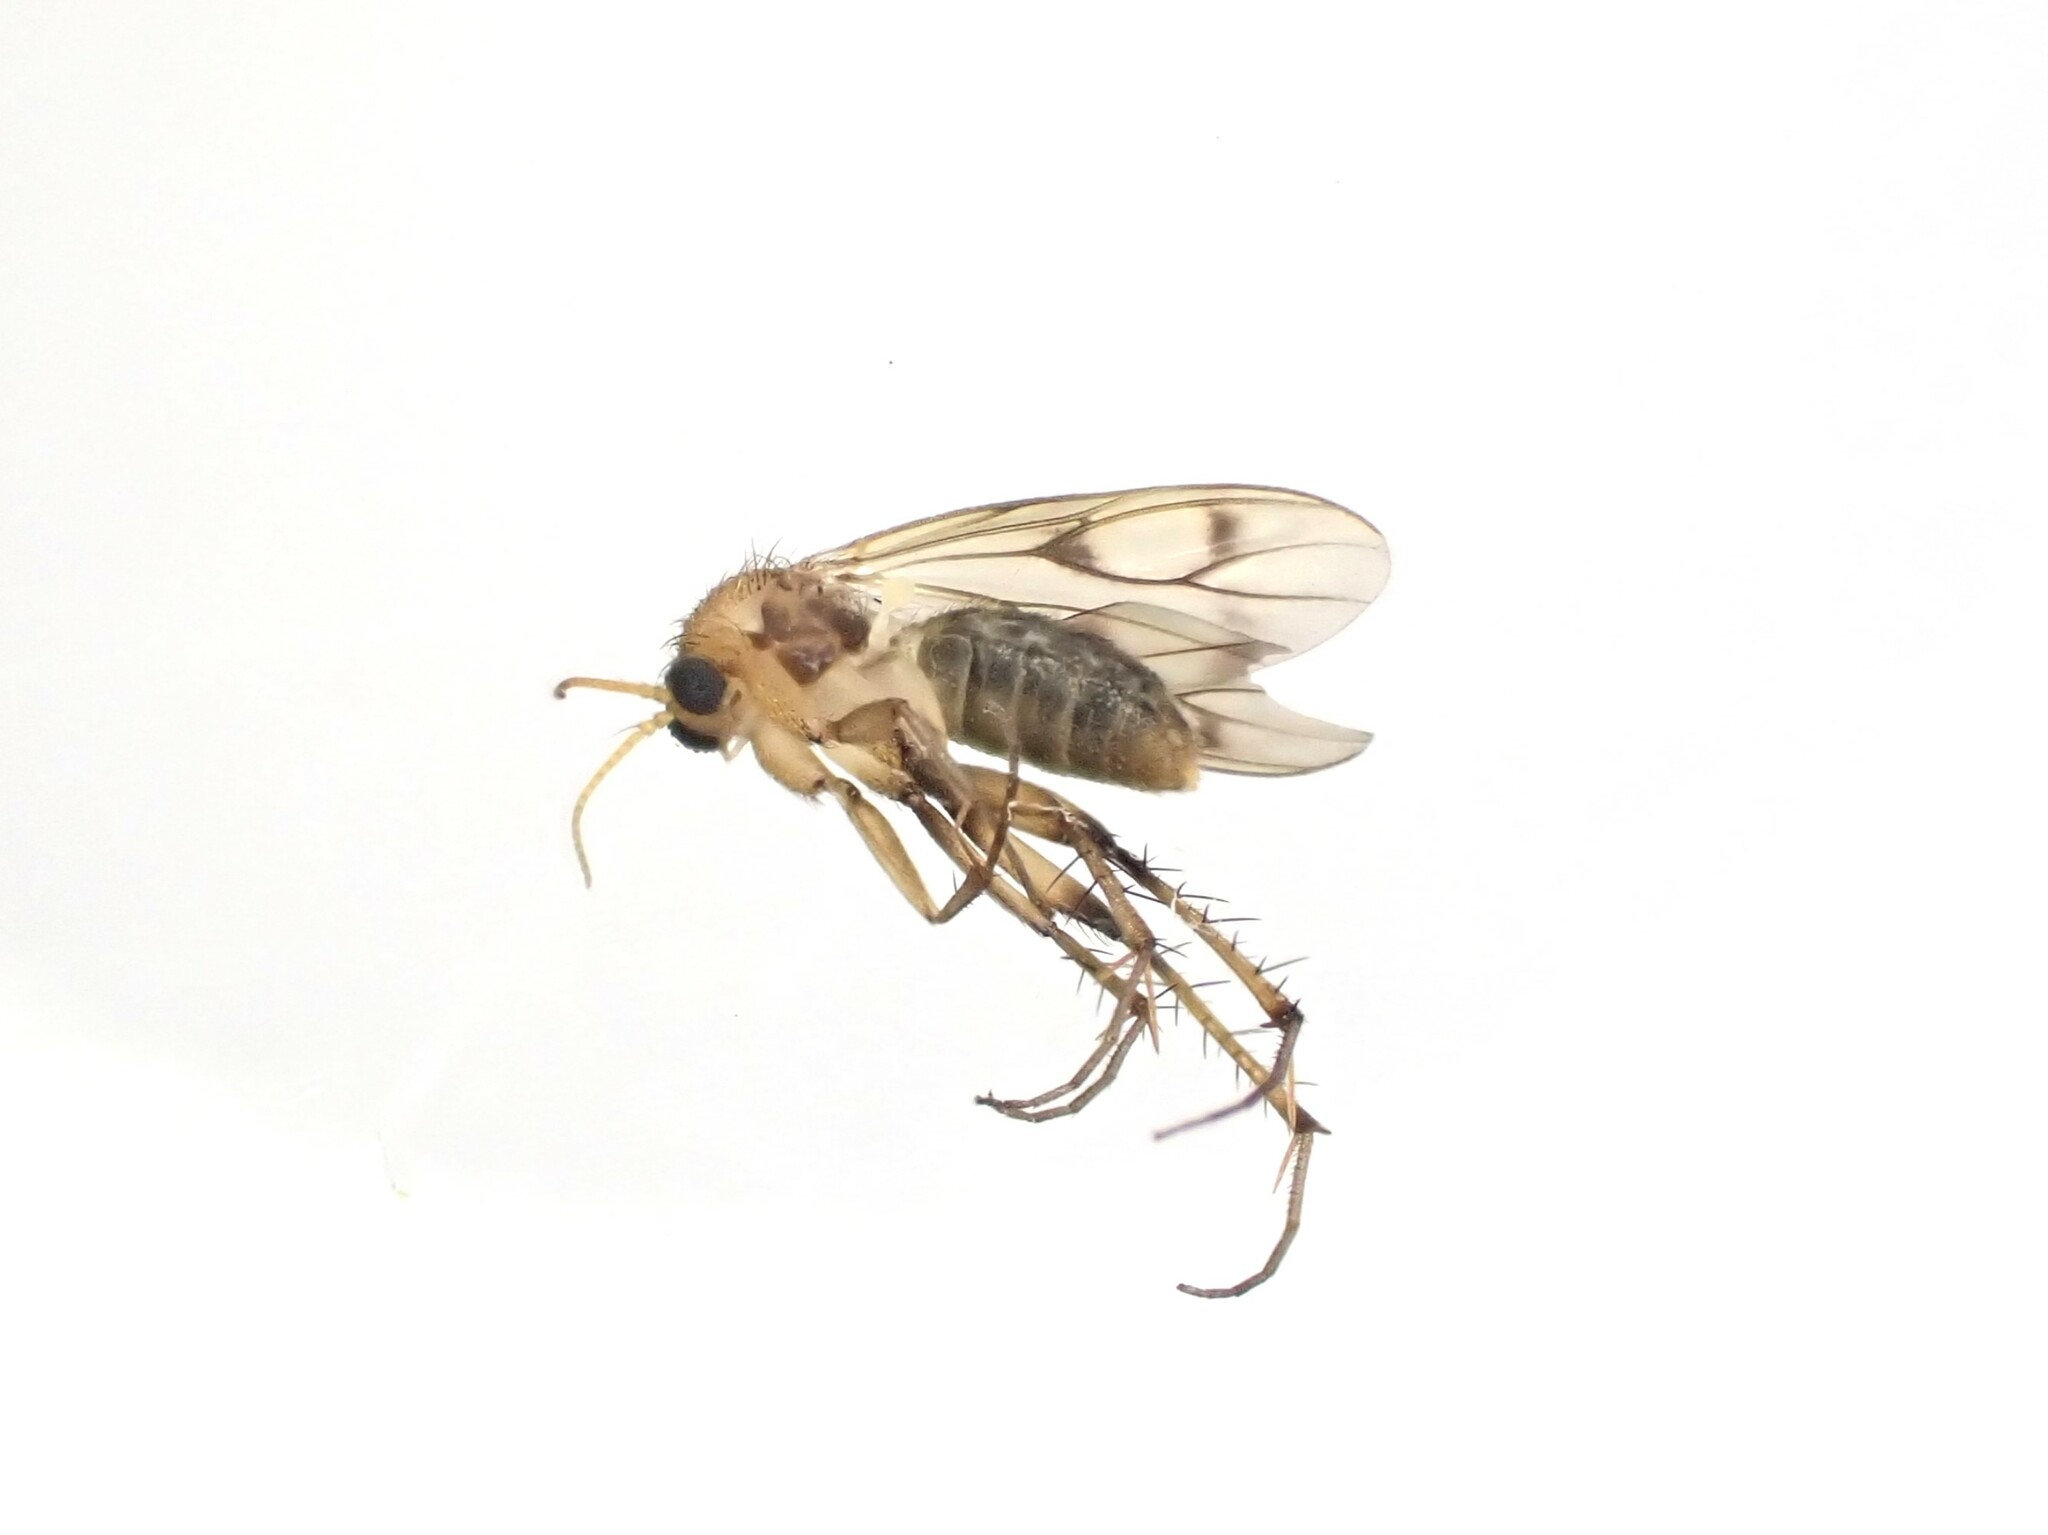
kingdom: Animalia
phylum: Arthropoda
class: Insecta
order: Diptera
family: Mycetophilidae
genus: Anomalomyia
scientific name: Anomalomyia guttata
